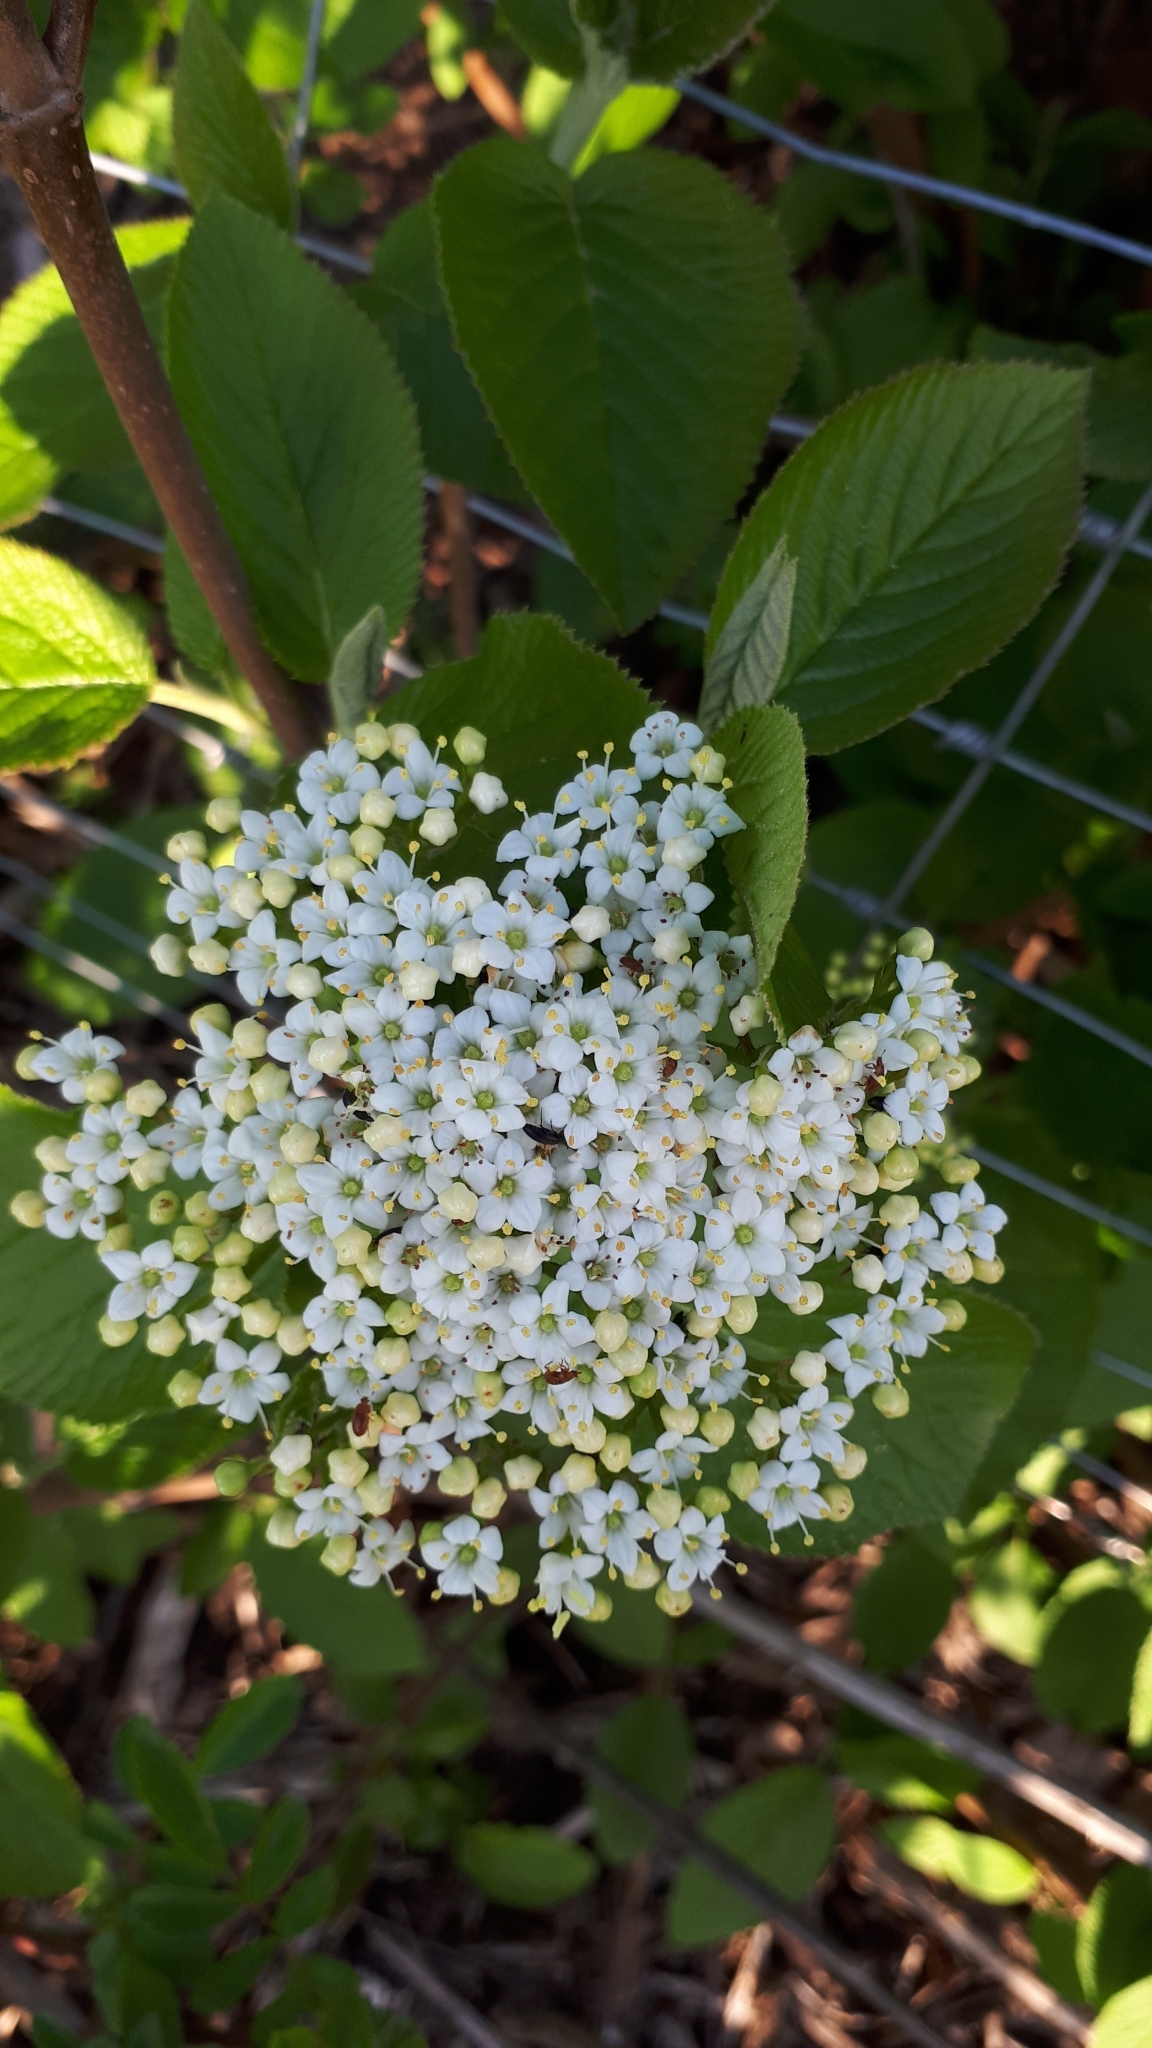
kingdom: Plantae
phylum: Tracheophyta
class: Magnoliopsida
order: Dipsacales
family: Viburnaceae
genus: Viburnum
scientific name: Viburnum lantana
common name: Wayfaring tree
